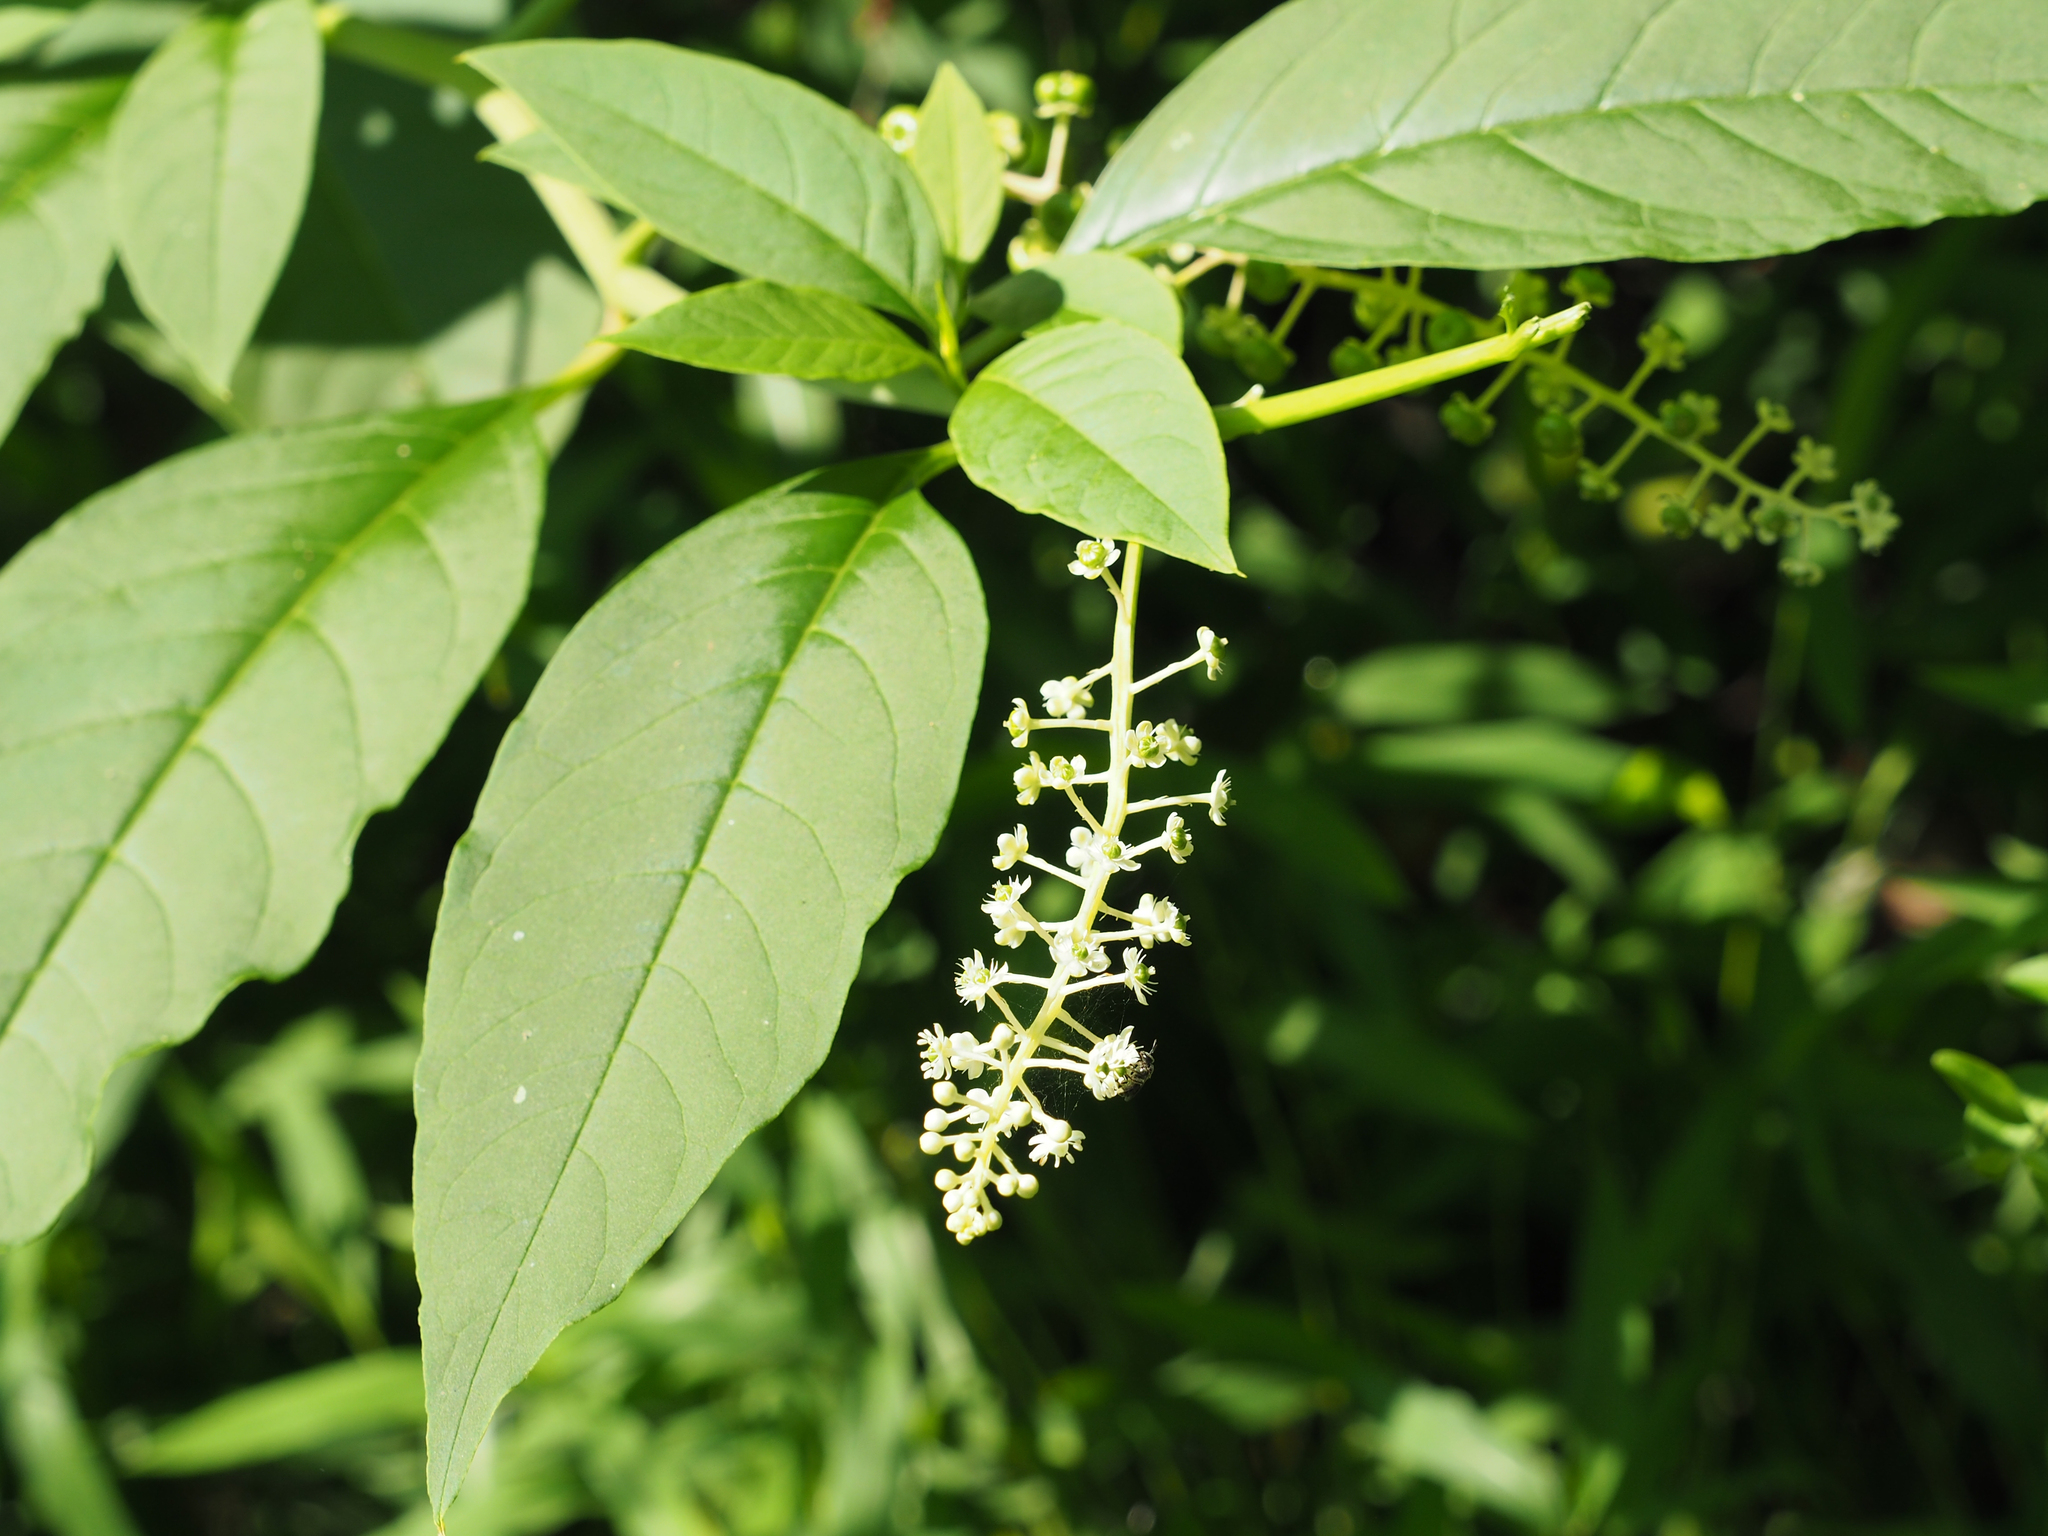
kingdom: Plantae
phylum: Tracheophyta
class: Magnoliopsida
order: Caryophyllales
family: Phytolaccaceae
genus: Phytolacca
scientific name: Phytolacca americana
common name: American pokeweed
